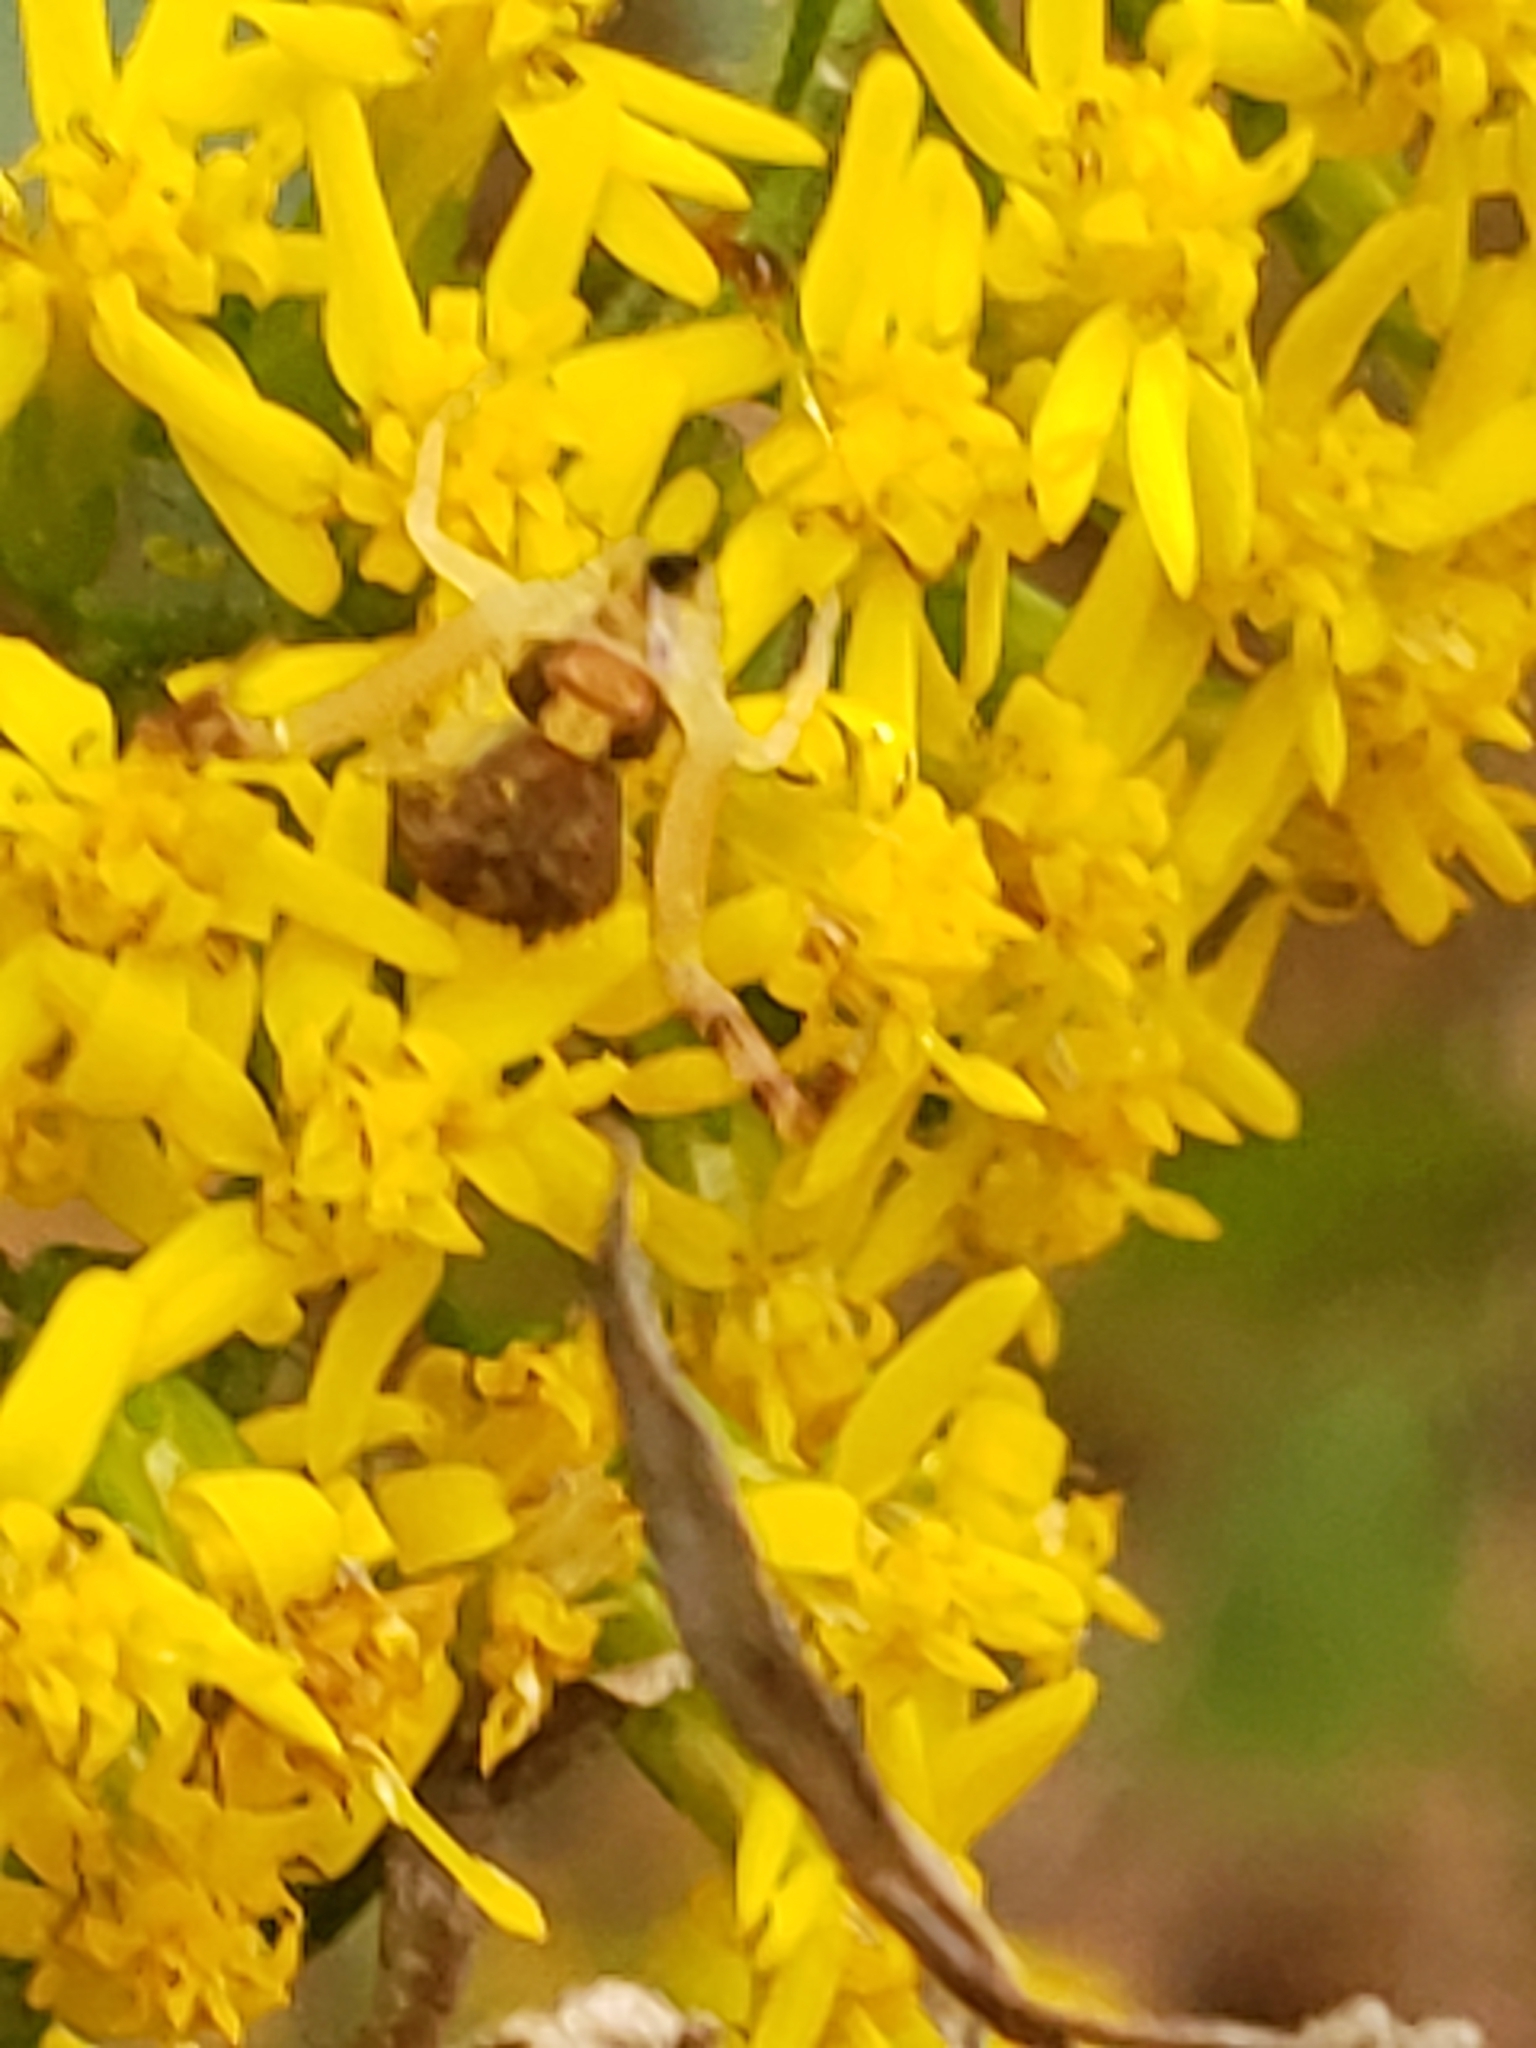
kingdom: Animalia
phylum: Arthropoda
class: Arachnida
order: Araneae
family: Thomisidae
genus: Mecaphesa
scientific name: Mecaphesa asperata
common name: Crab spiders
